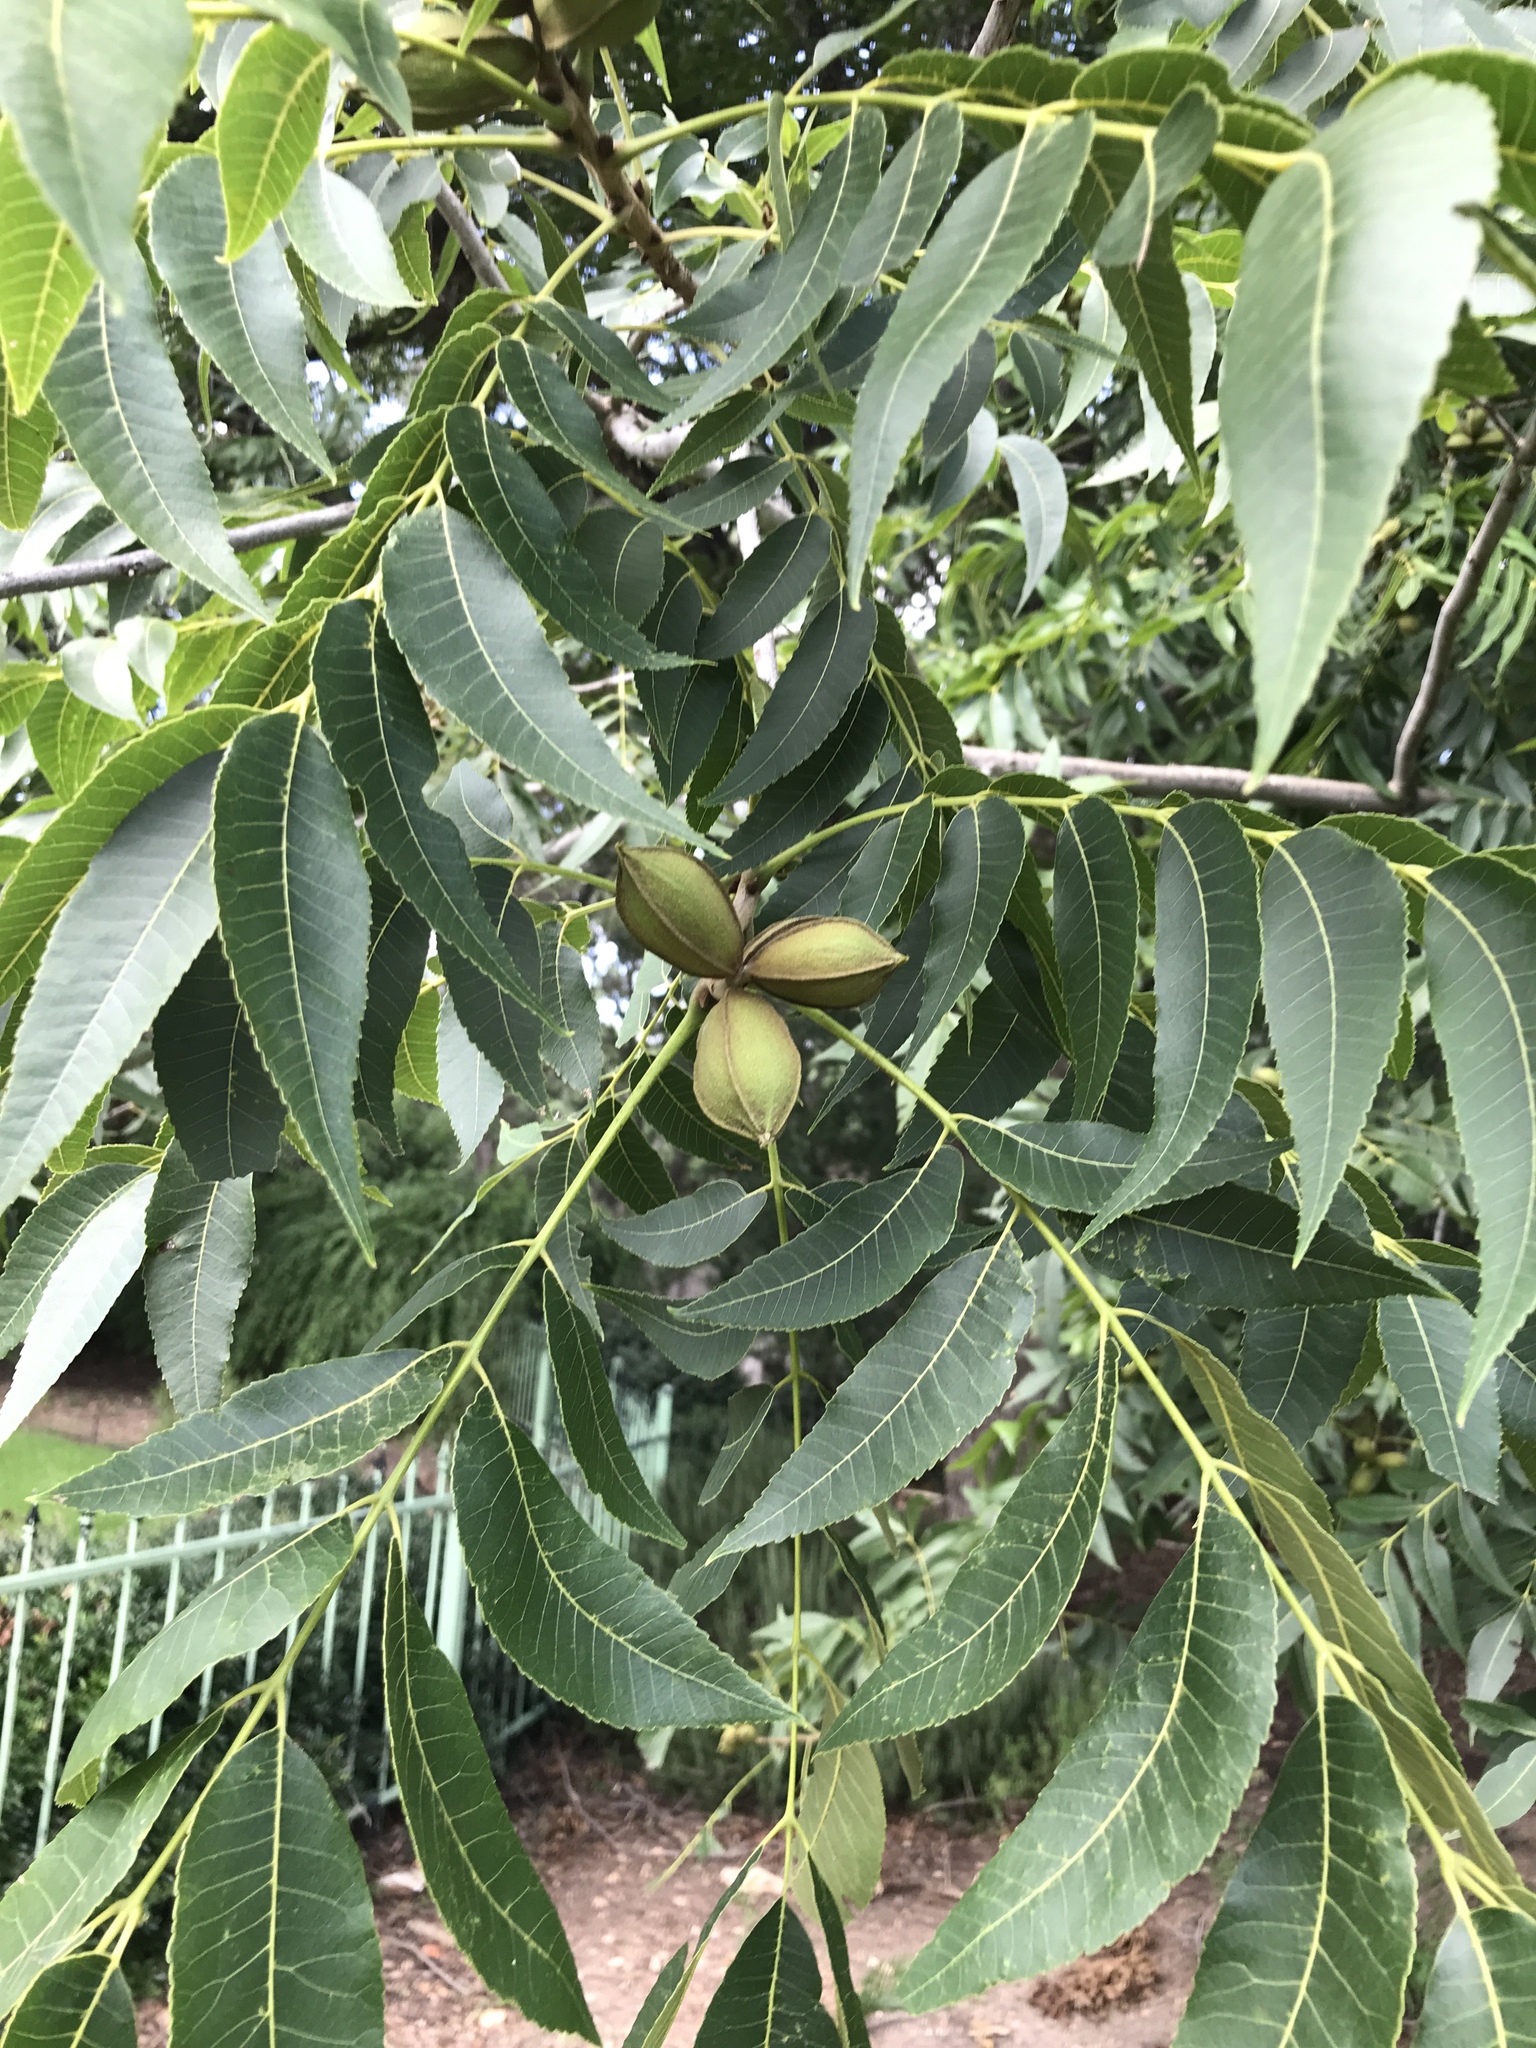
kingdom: Plantae
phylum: Tracheophyta
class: Magnoliopsida
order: Fagales
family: Juglandaceae
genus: Carya
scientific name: Carya illinoinensis
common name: Pecan
